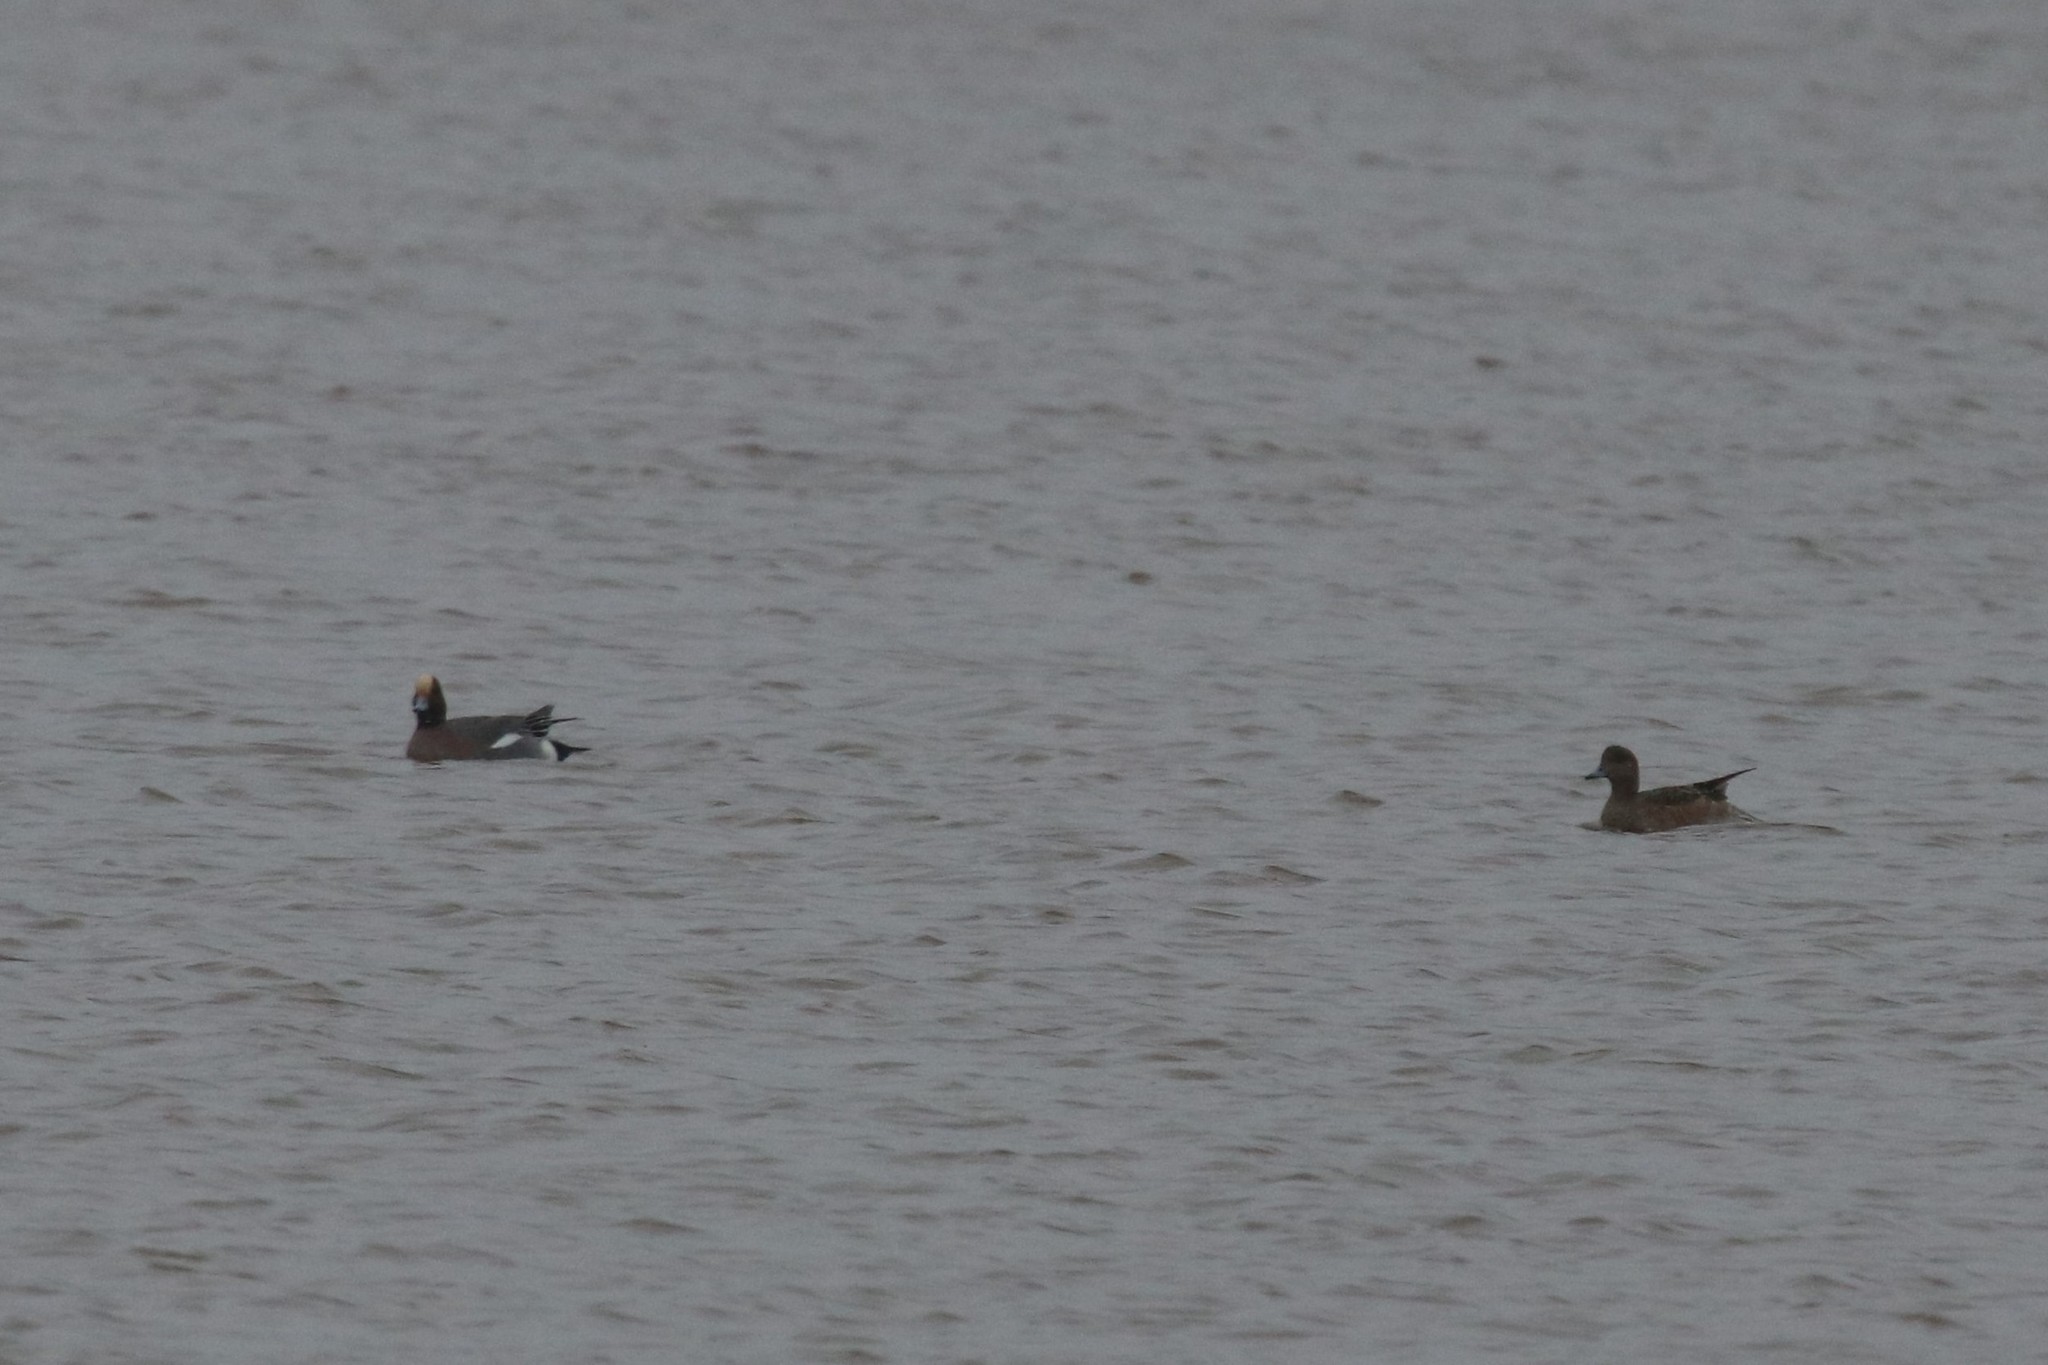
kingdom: Animalia
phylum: Chordata
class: Aves
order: Anseriformes
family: Anatidae
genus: Mareca
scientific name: Mareca penelope
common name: Eurasian wigeon
